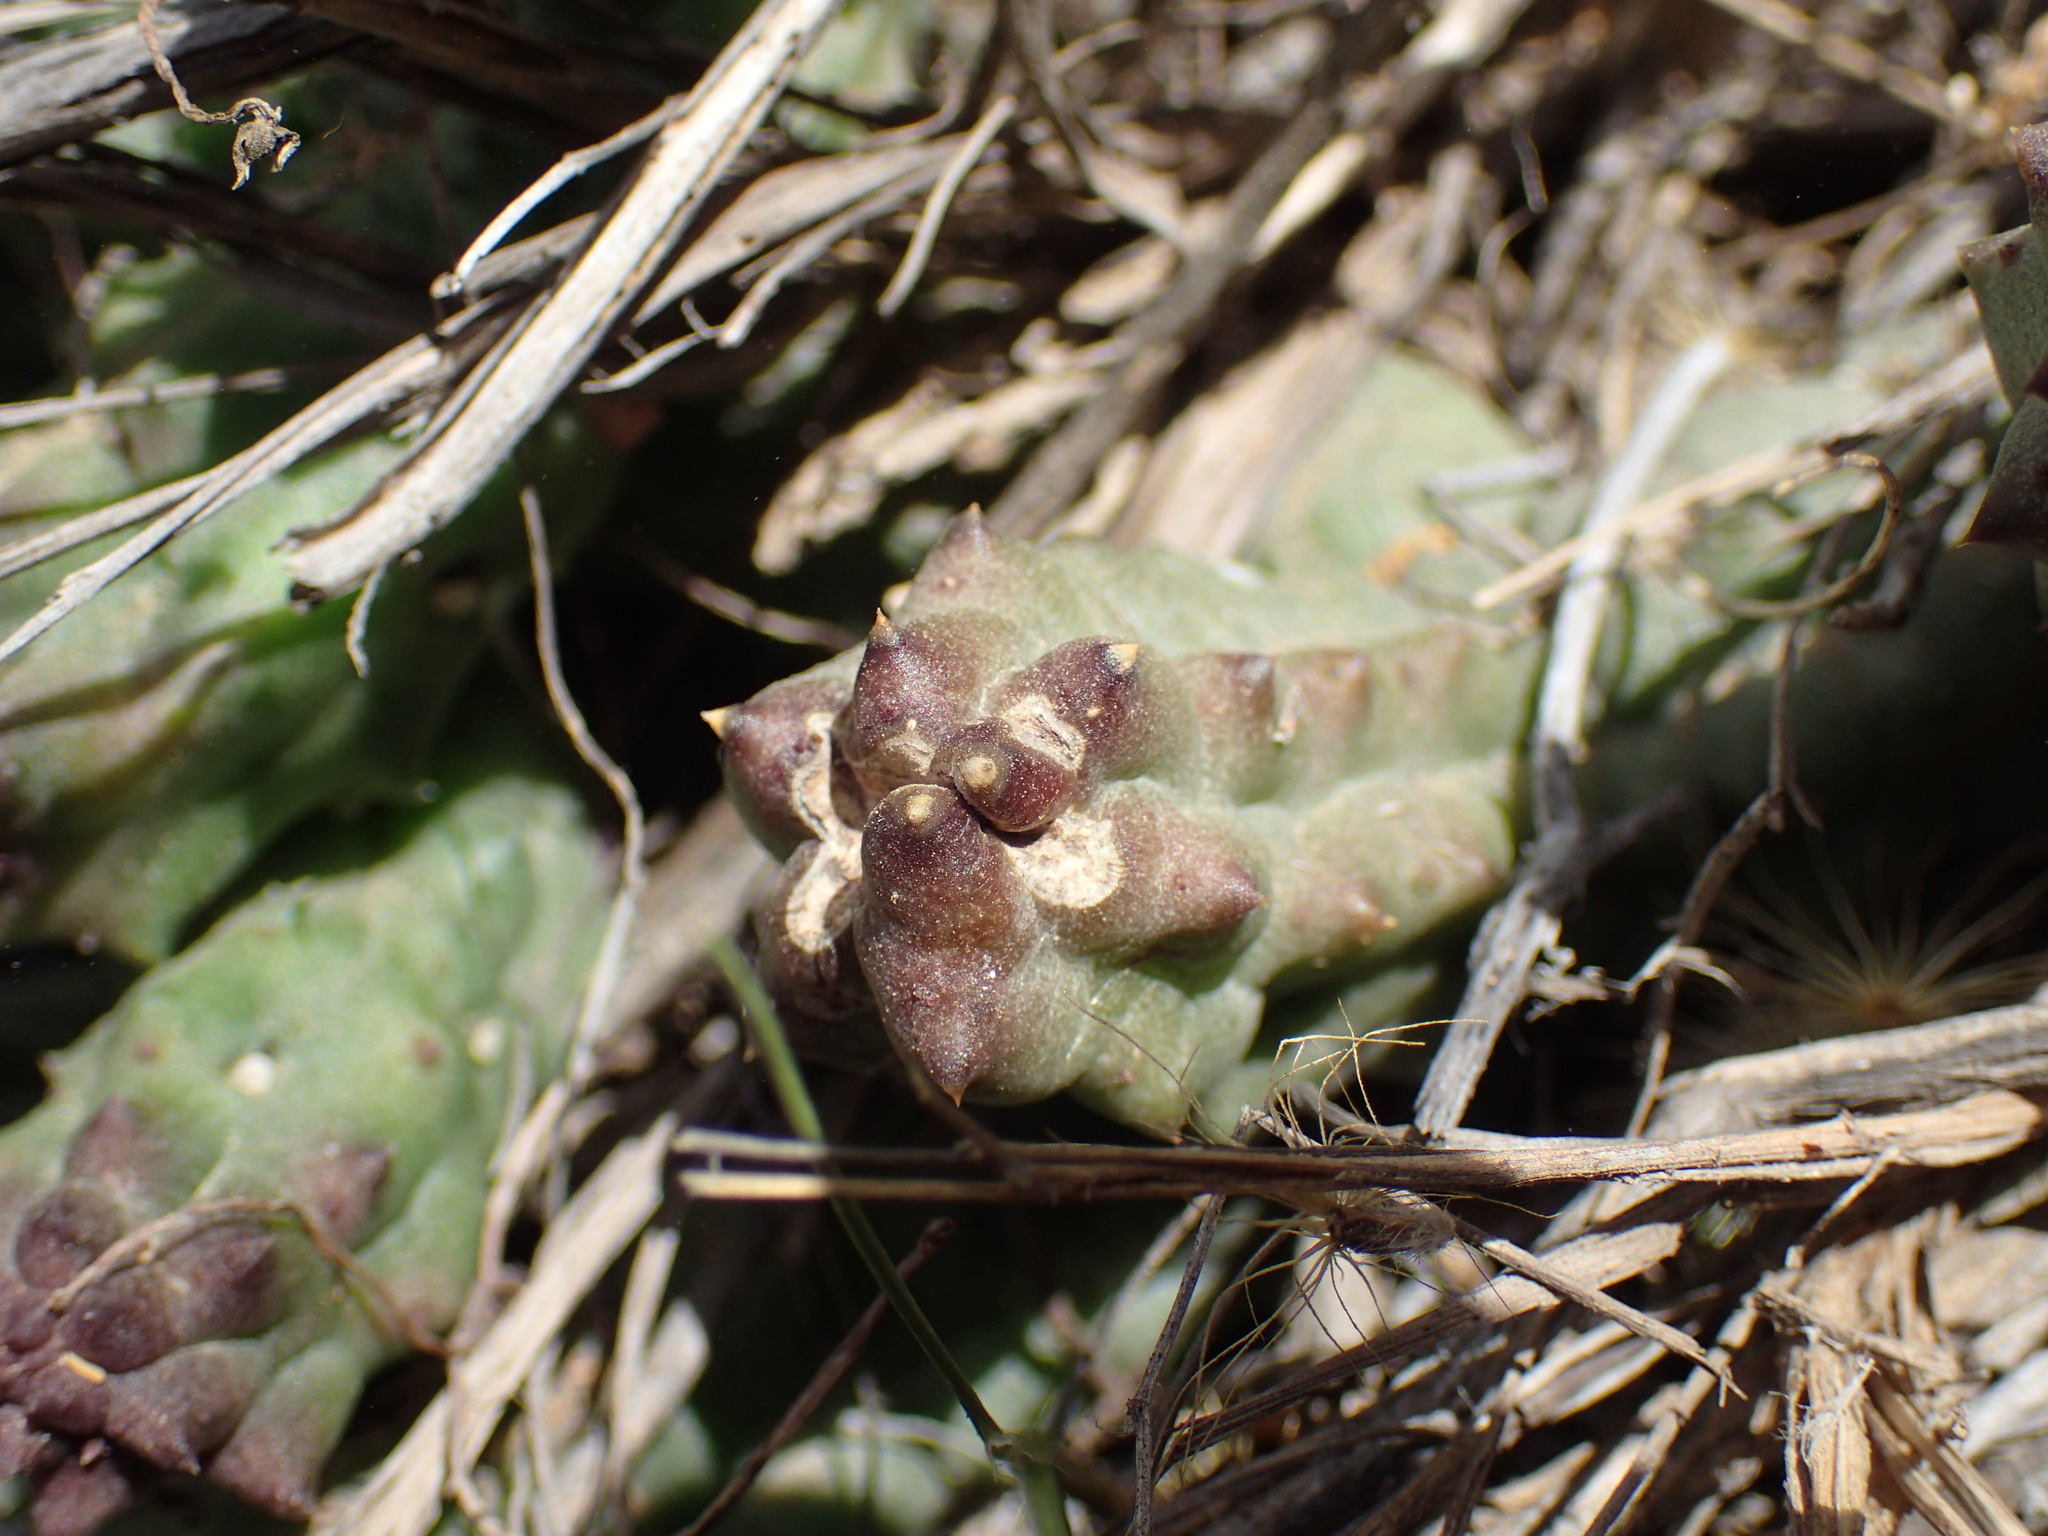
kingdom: Plantae
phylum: Tracheophyta
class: Magnoliopsida
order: Gentianales
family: Apocynaceae
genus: Ceropegia
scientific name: Ceropegia articulata
